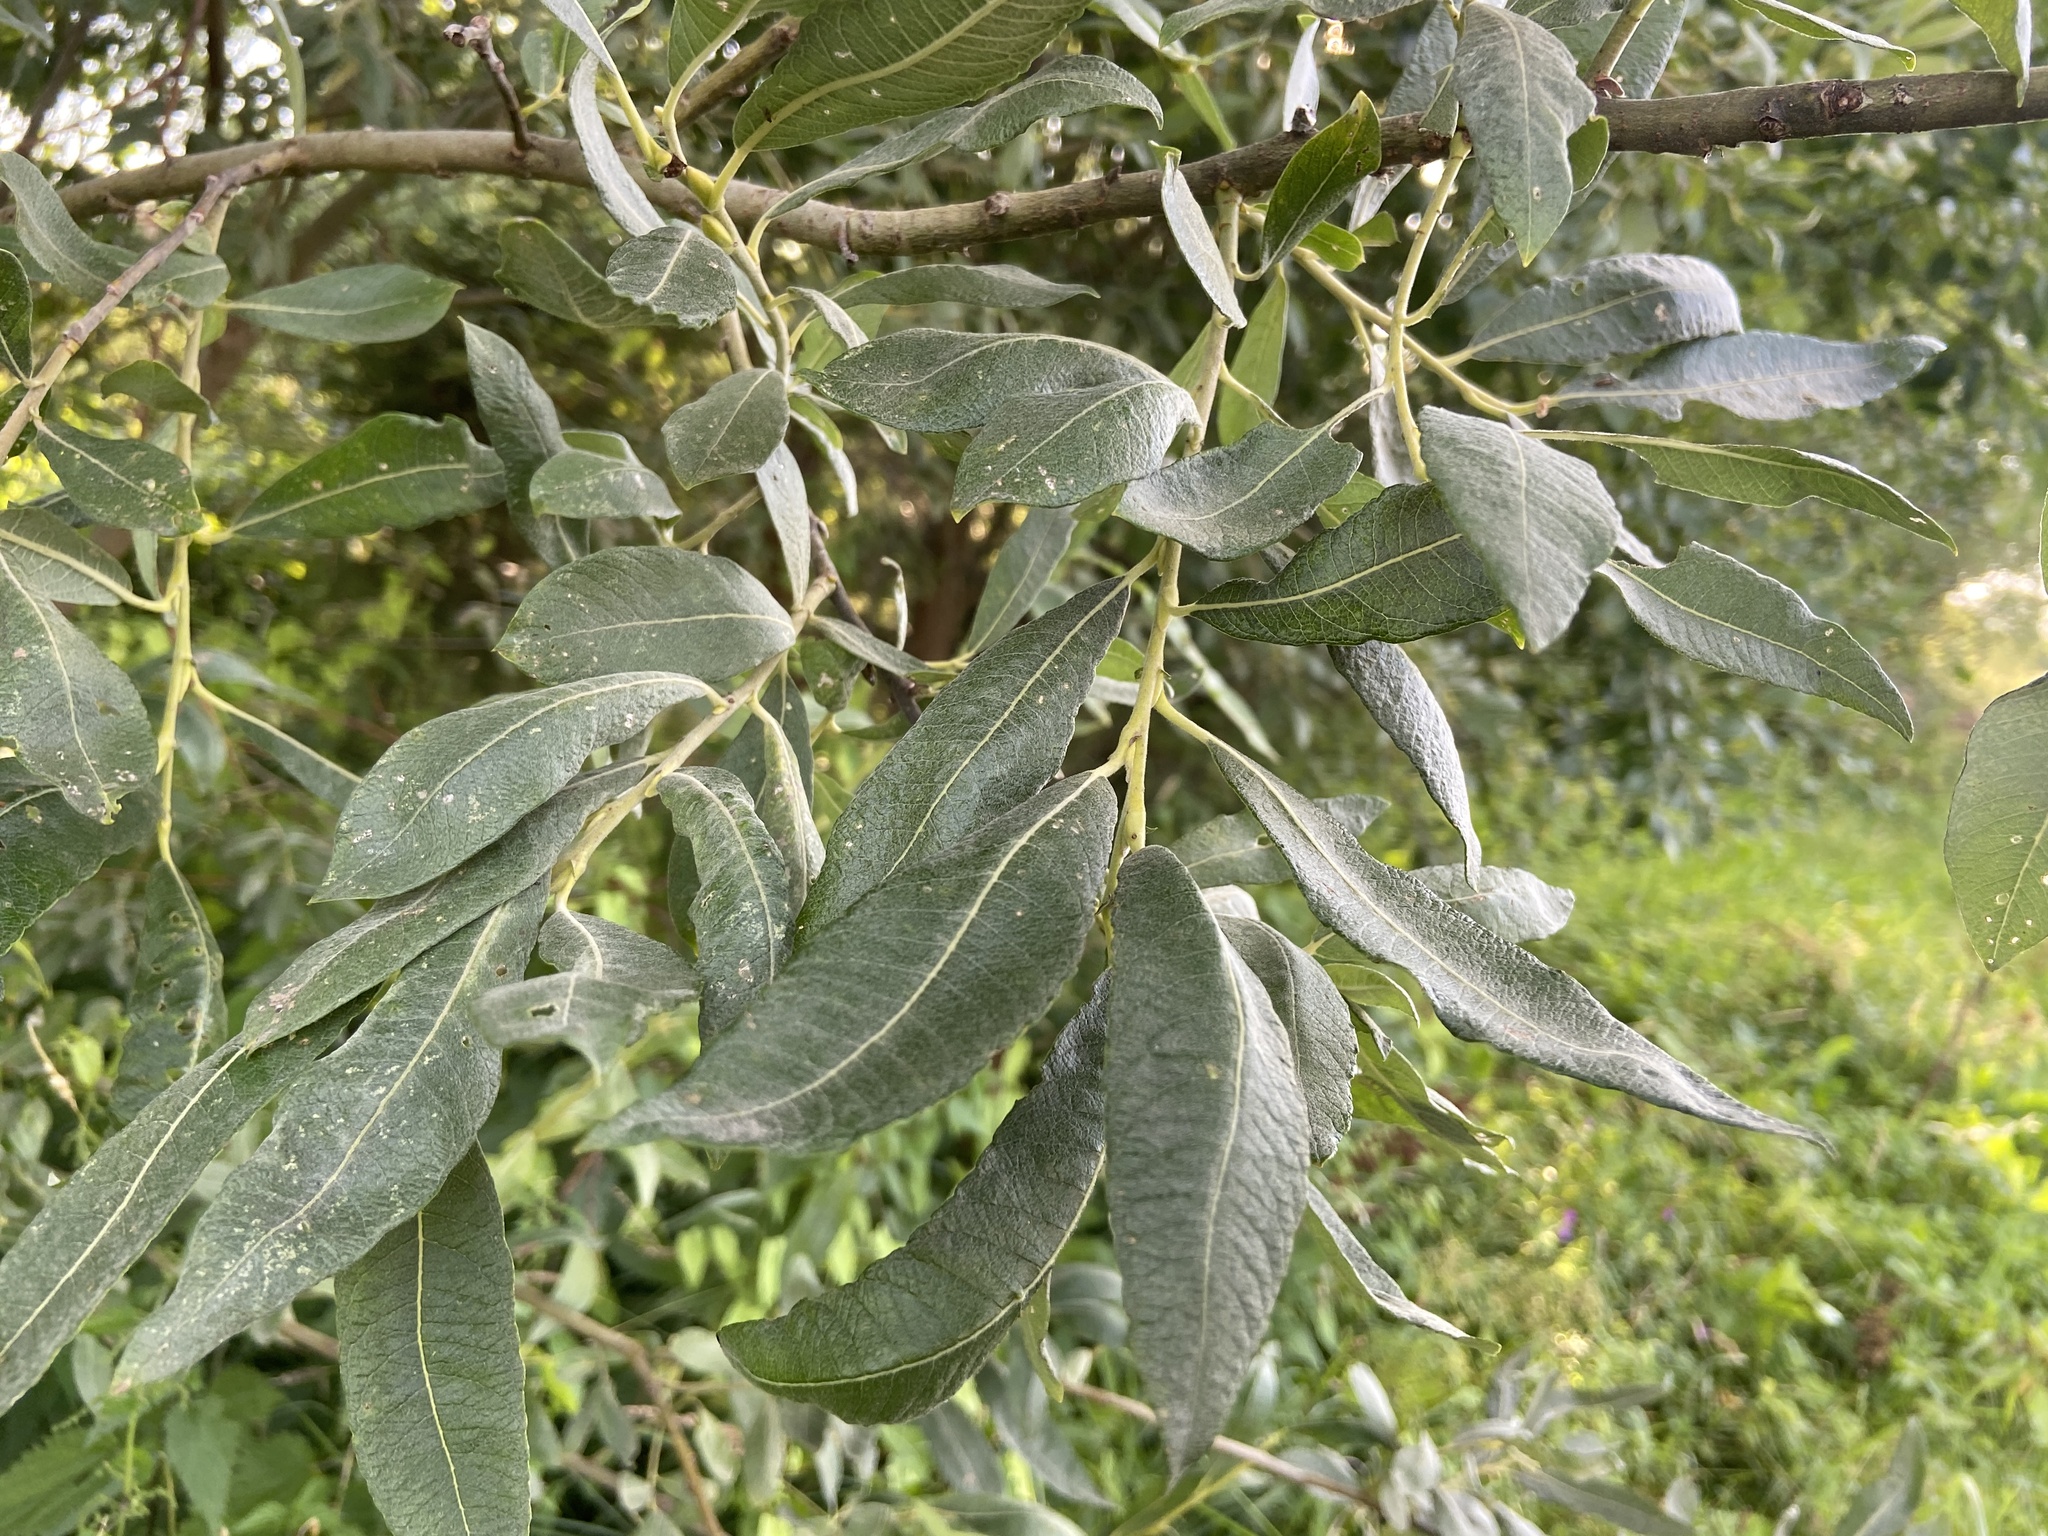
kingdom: Plantae
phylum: Tracheophyta
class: Magnoliopsida
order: Malpighiales
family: Salicaceae
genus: Salix
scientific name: Salix gmelinii
